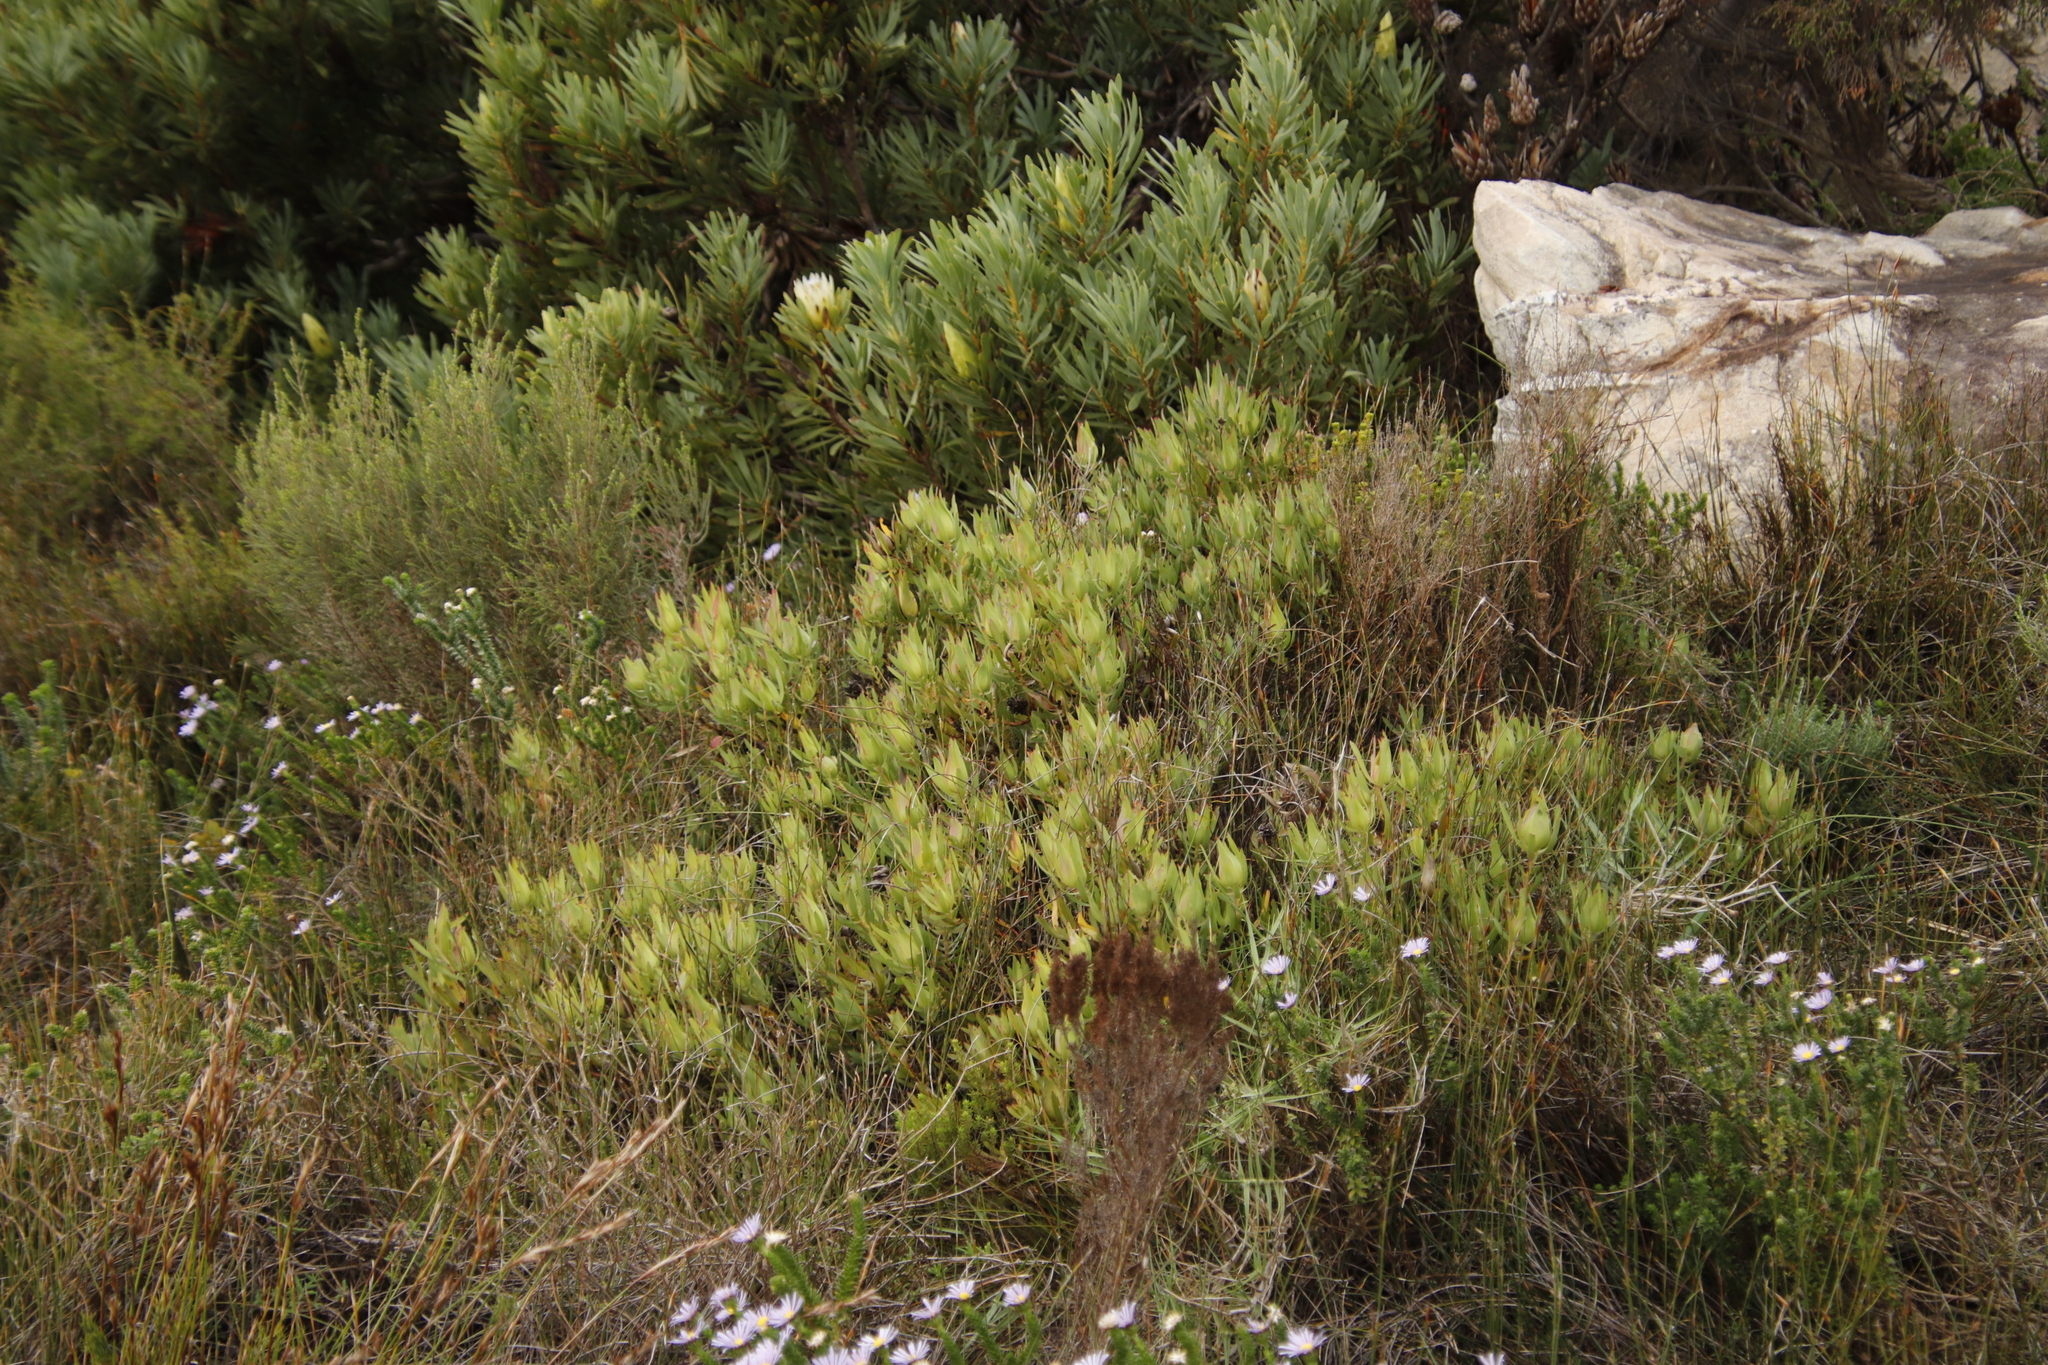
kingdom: Plantae
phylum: Tracheophyta
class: Magnoliopsida
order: Proteales
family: Proteaceae
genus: Leucadendron
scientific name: Leucadendron salignum
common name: Common sunshine conebush
